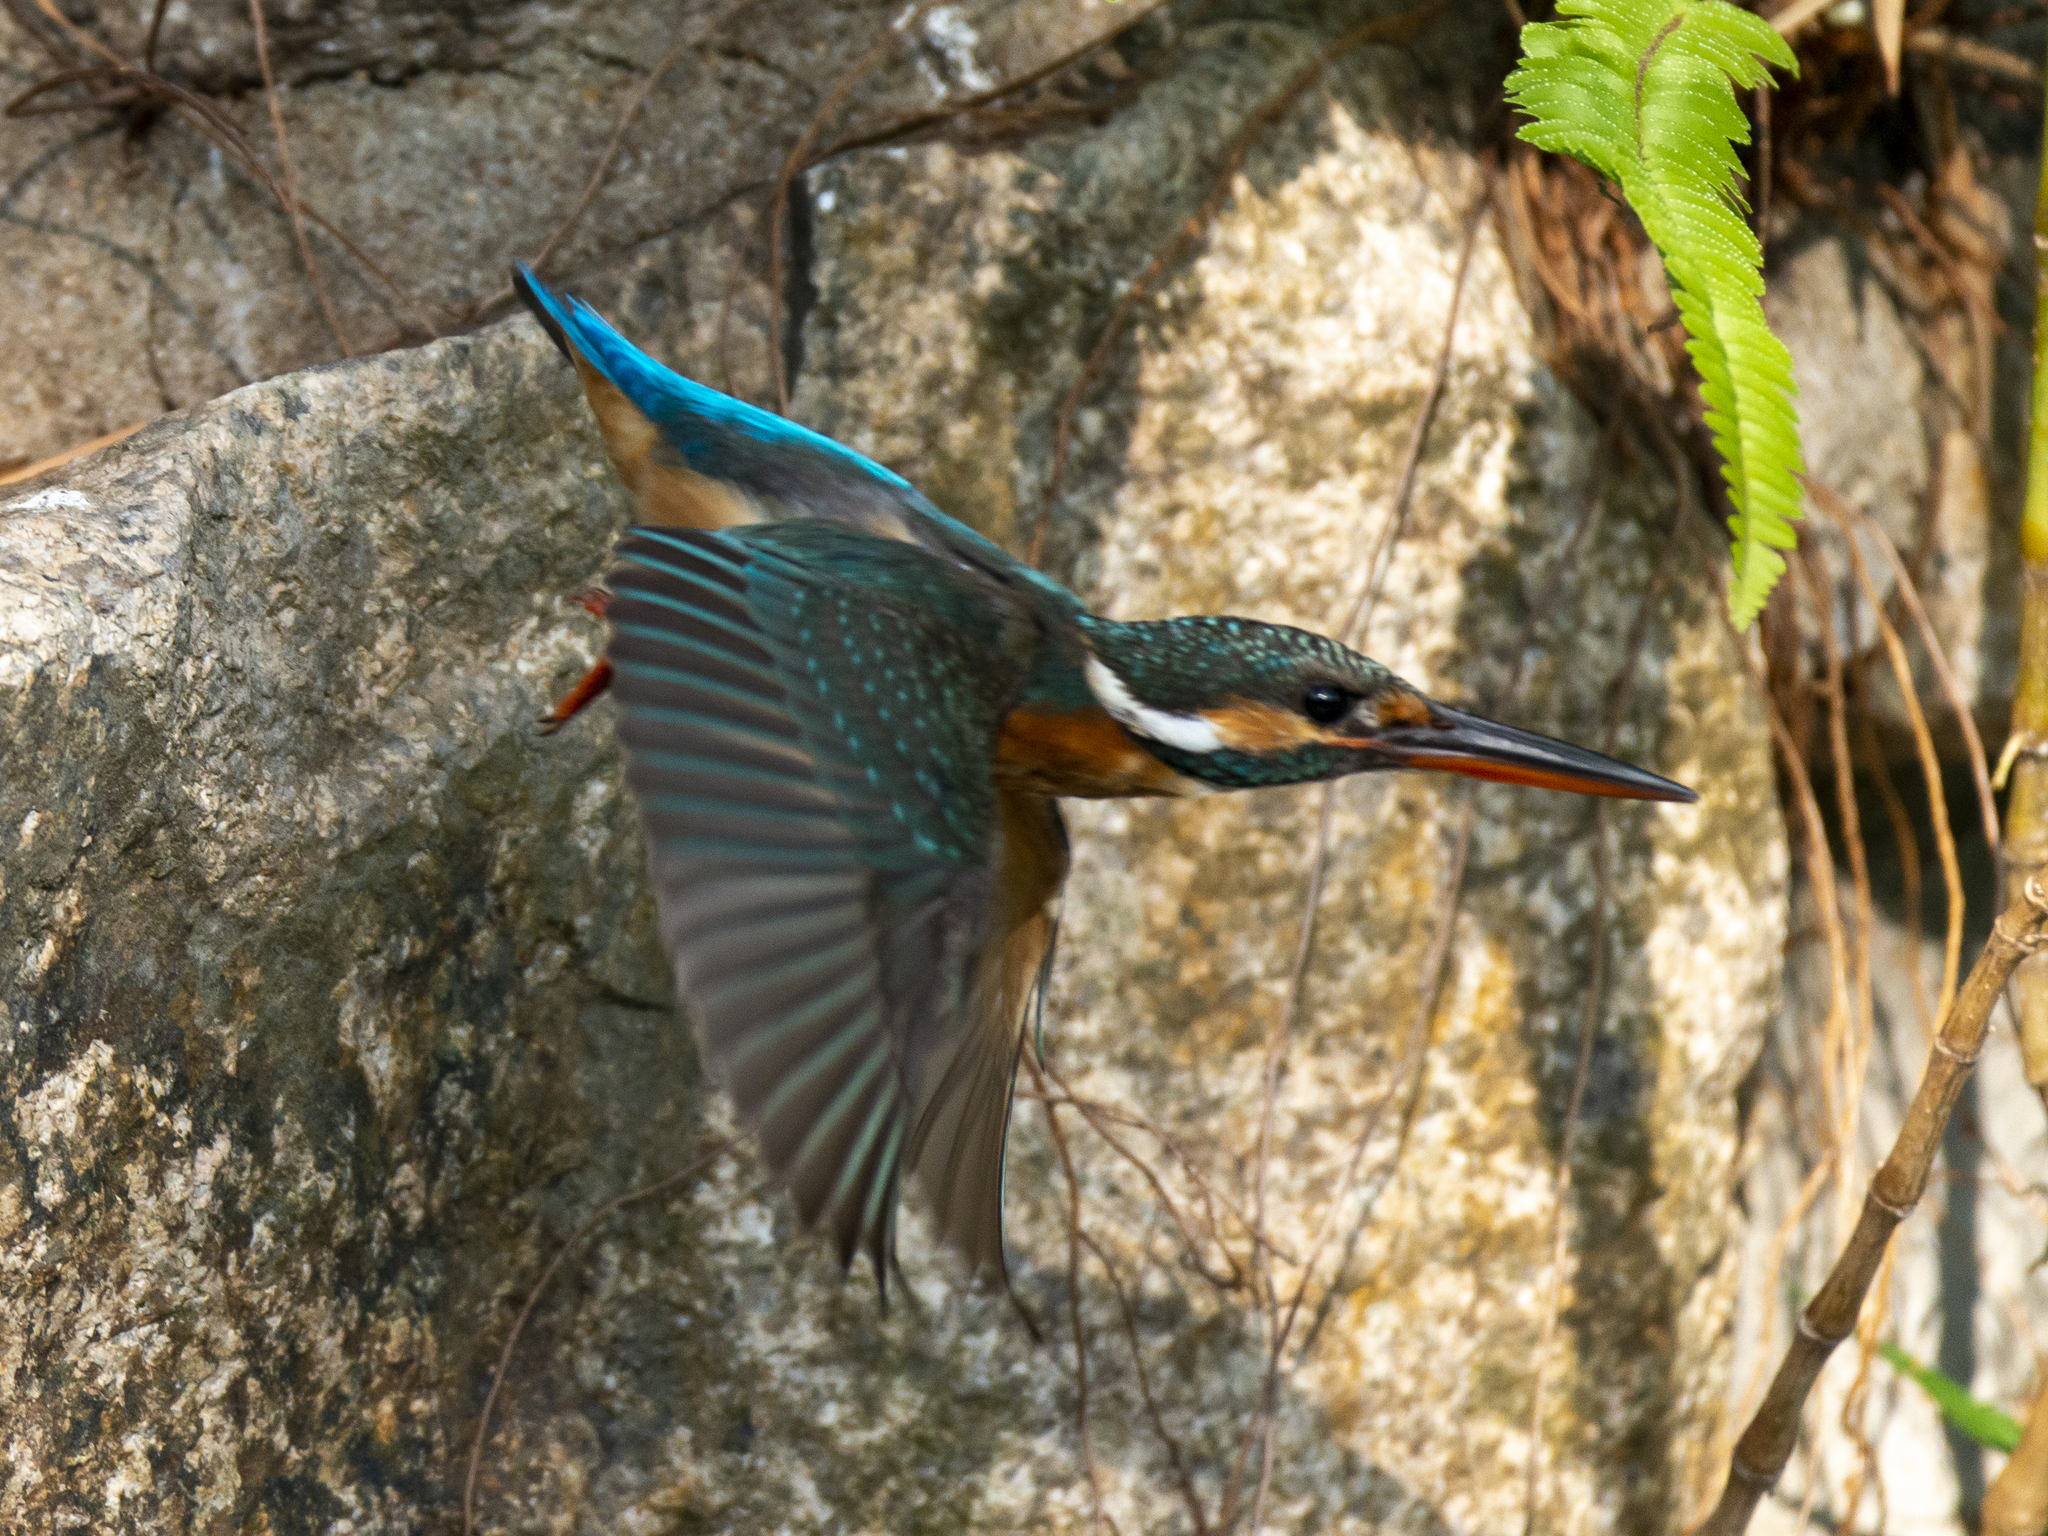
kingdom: Animalia
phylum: Chordata
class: Aves
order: Coraciiformes
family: Alcedinidae
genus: Alcedo
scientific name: Alcedo atthis
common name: Common kingfisher
